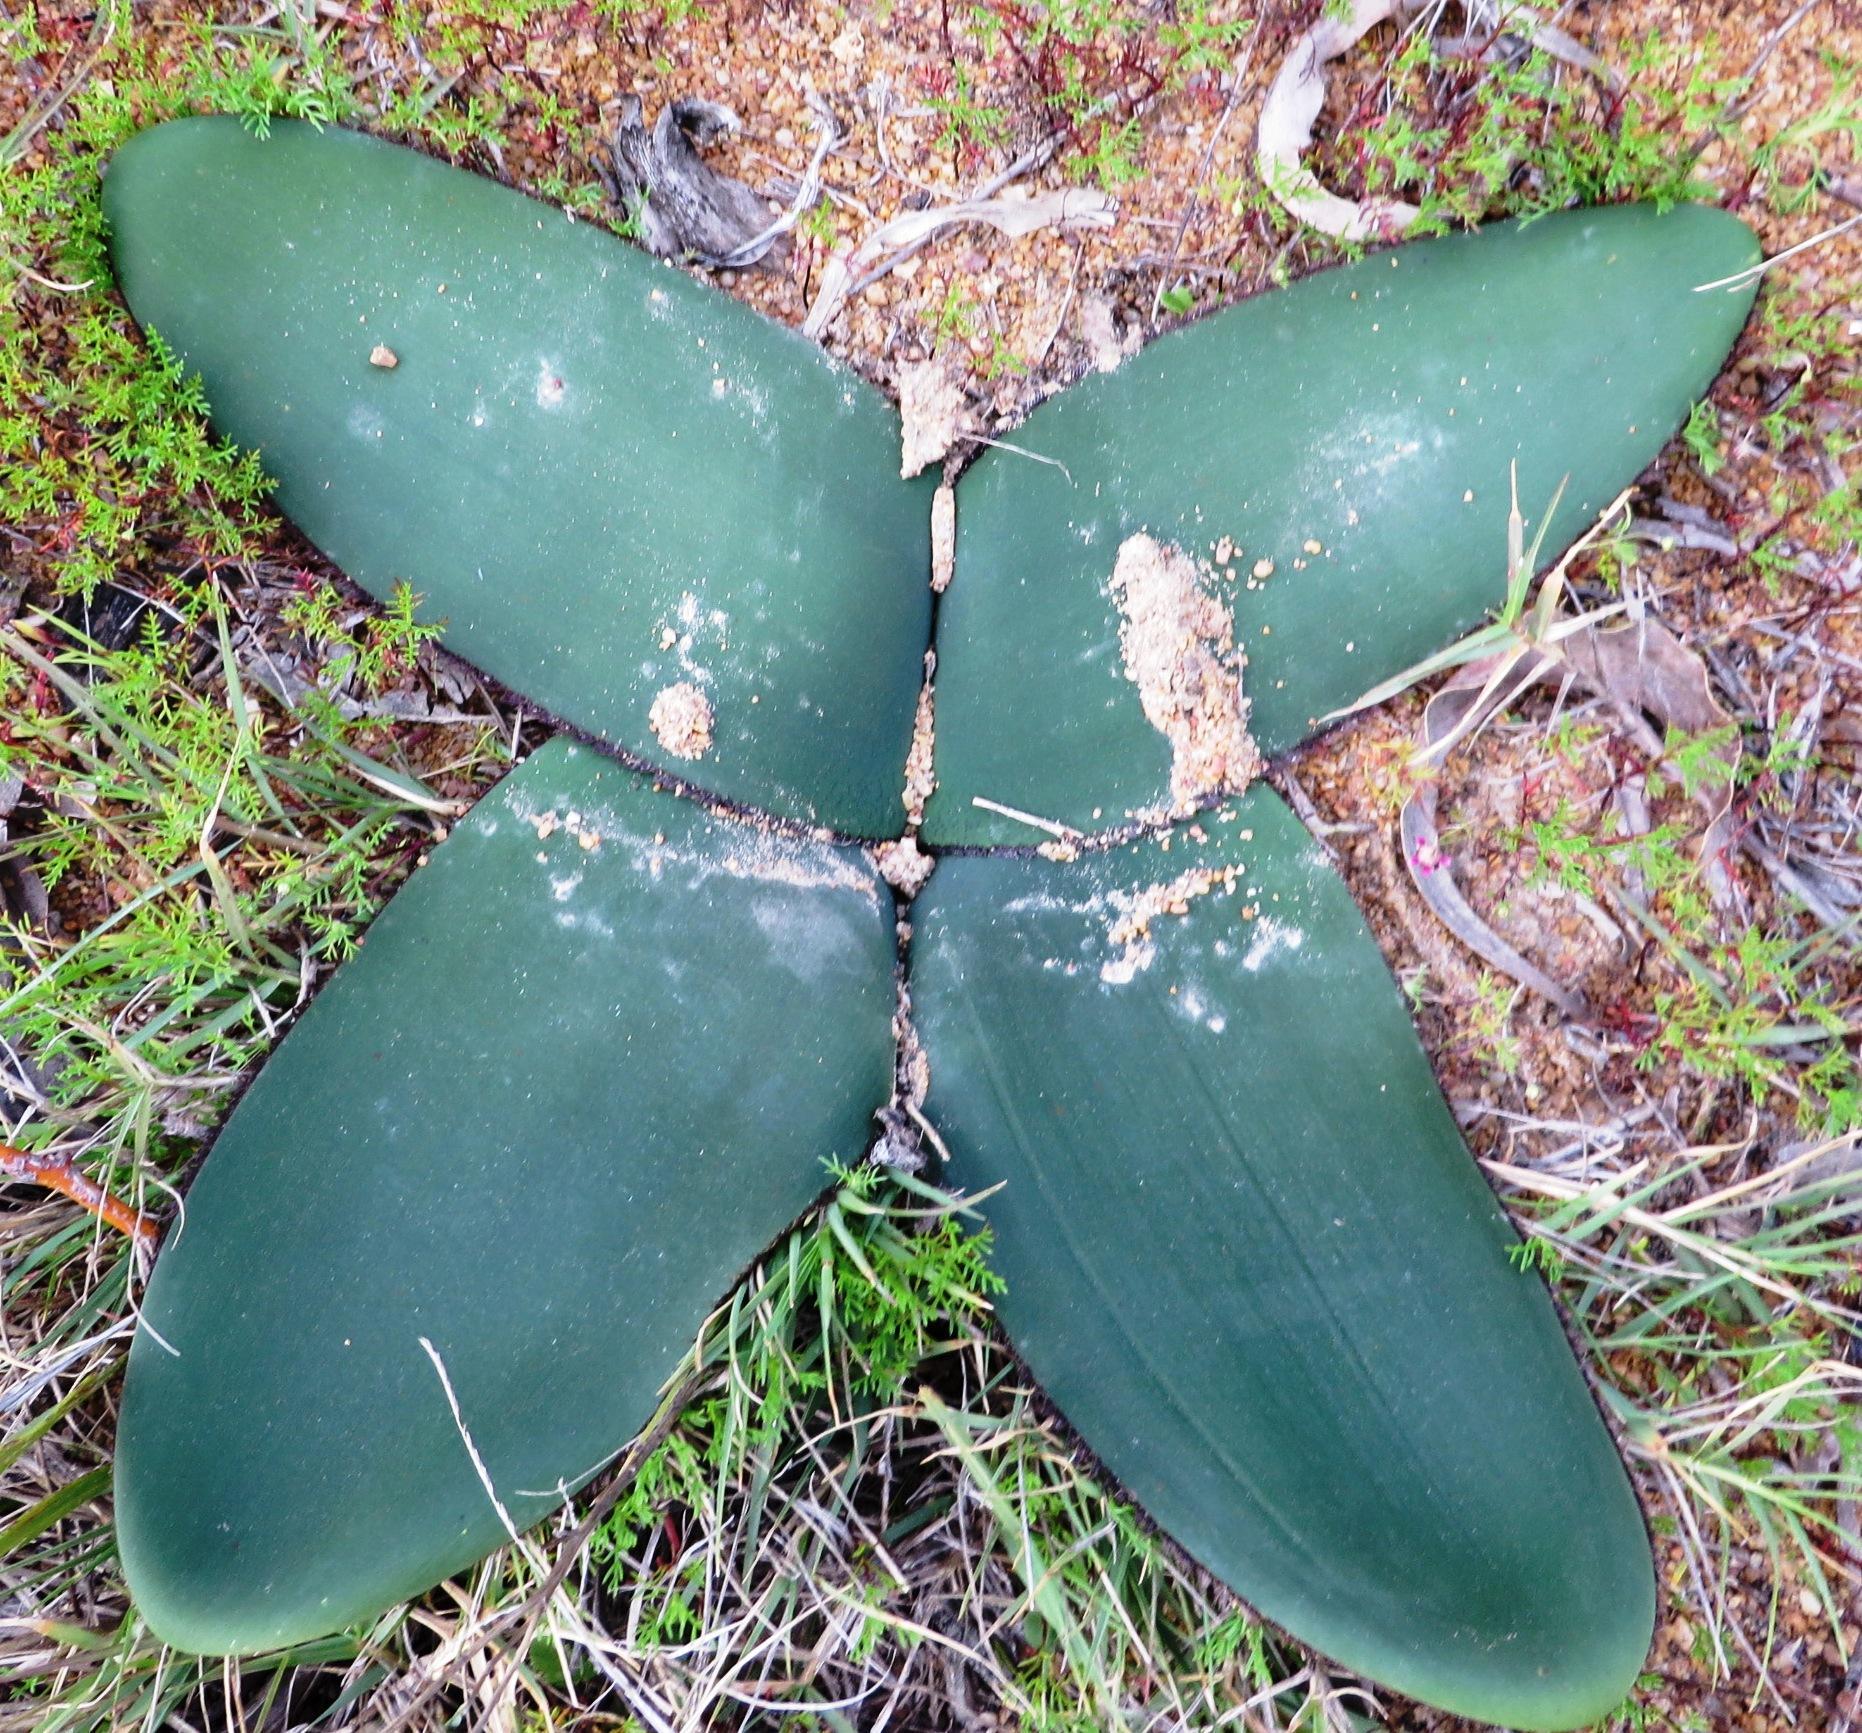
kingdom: Plantae
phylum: Tracheophyta
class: Liliopsida
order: Asparagales
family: Amaryllidaceae
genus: Crossyne
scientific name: Crossyne guttata
